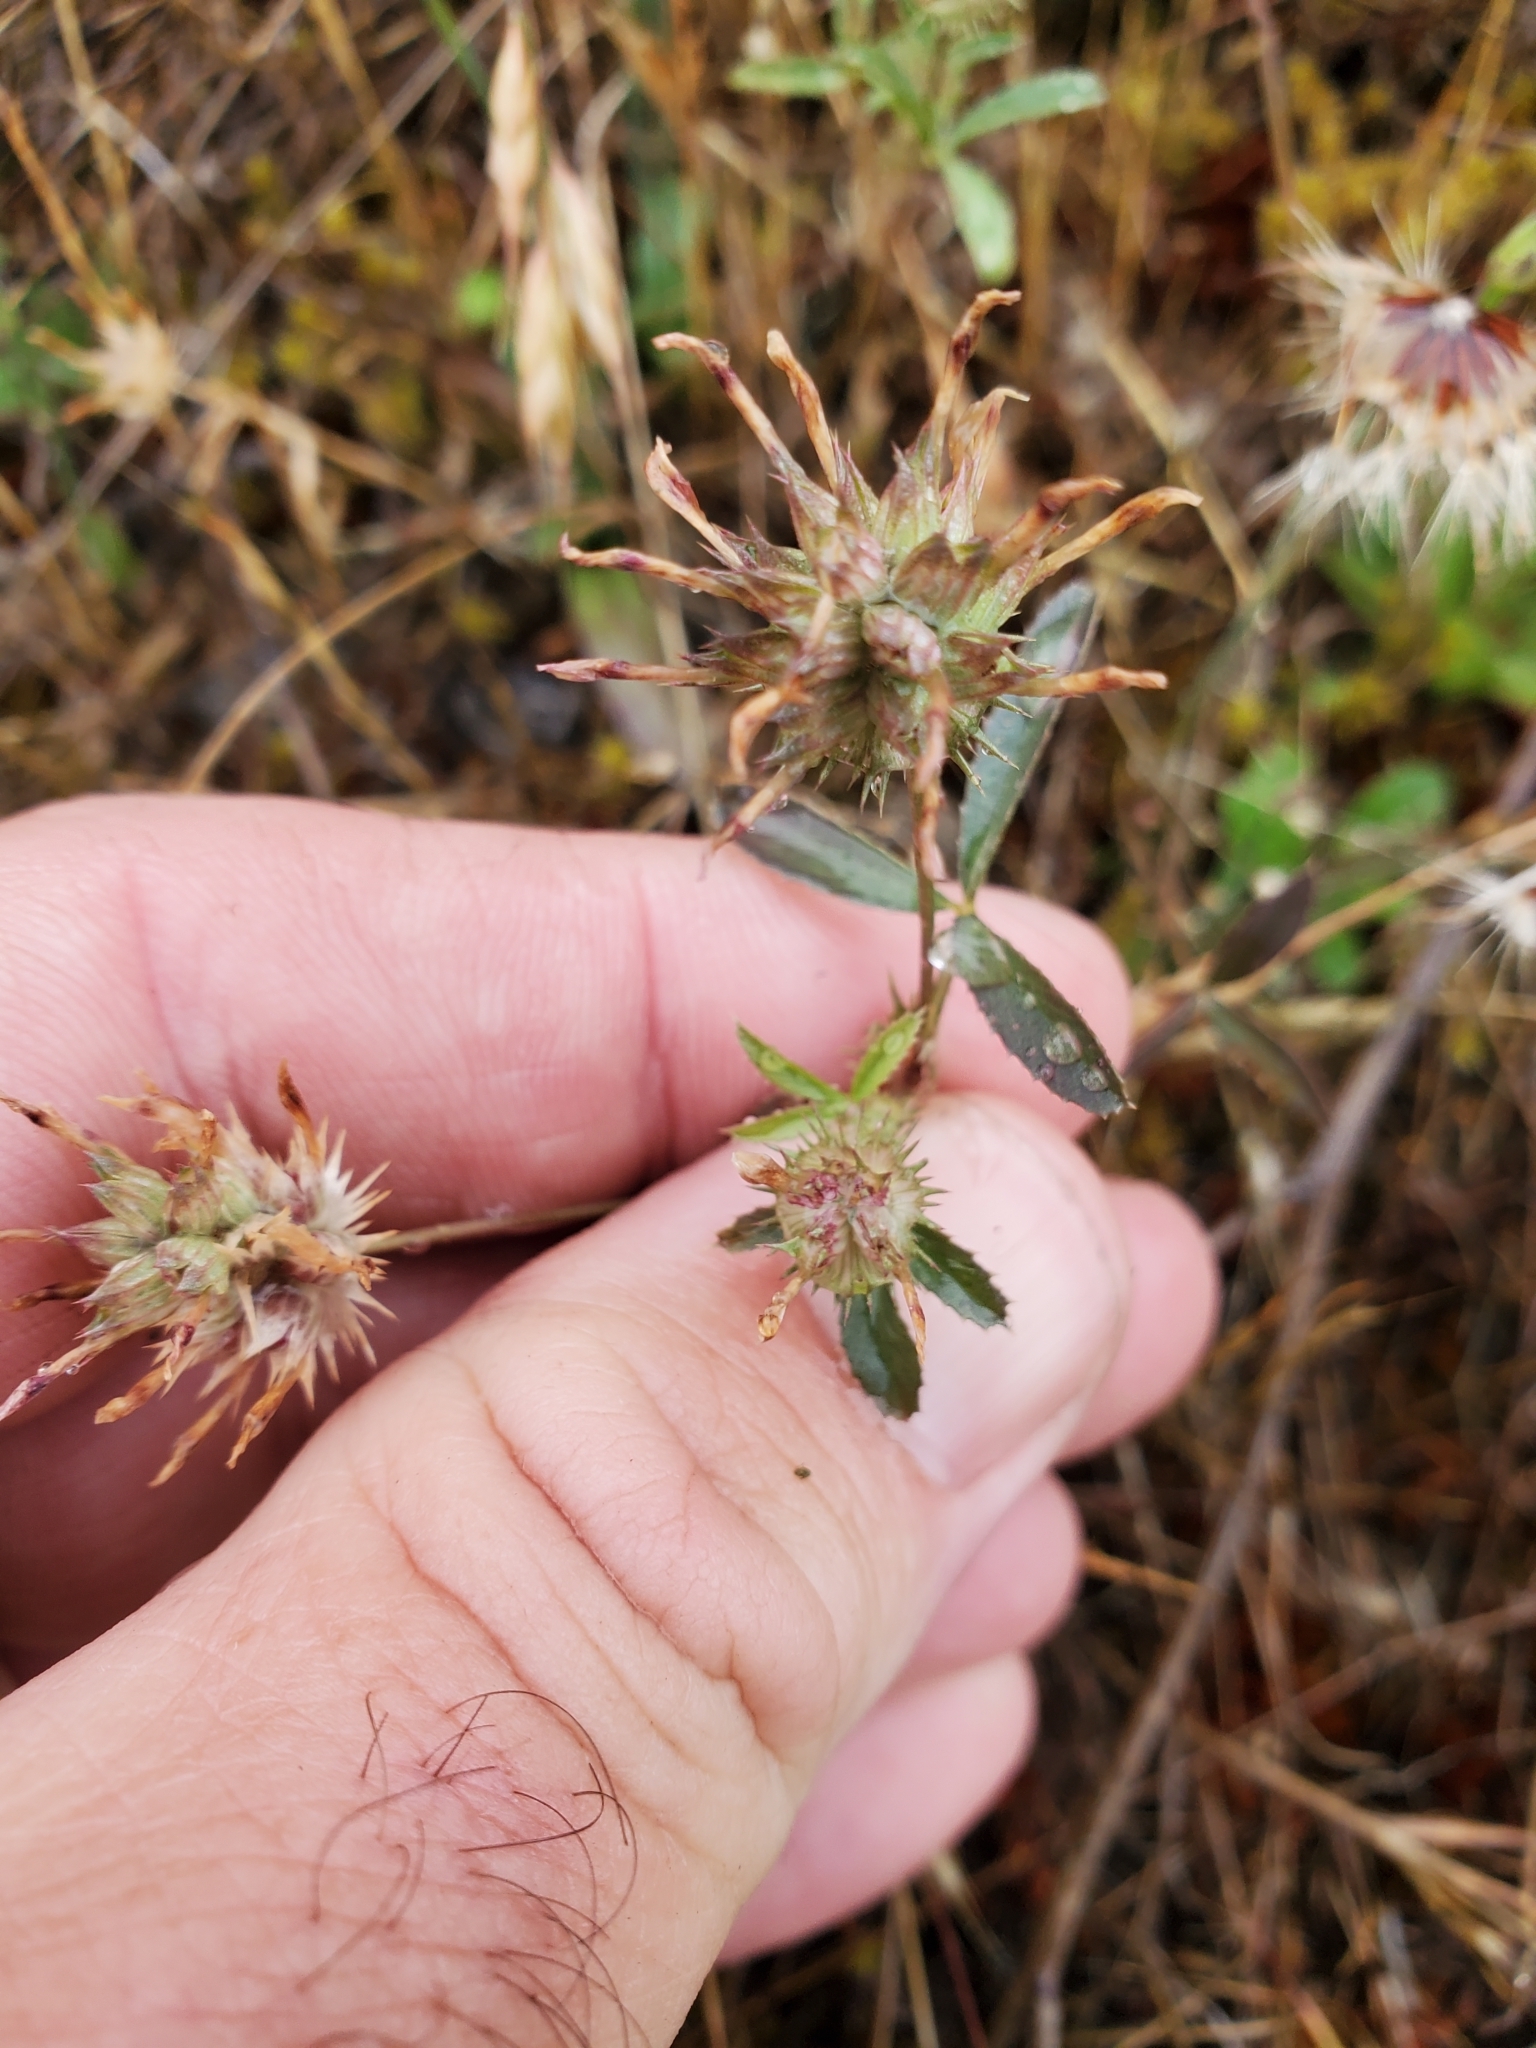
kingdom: Plantae
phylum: Tracheophyta
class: Magnoliopsida
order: Fabales
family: Fabaceae
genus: Trifolium
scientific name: Trifolium willdenovii
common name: Tomcat clover
